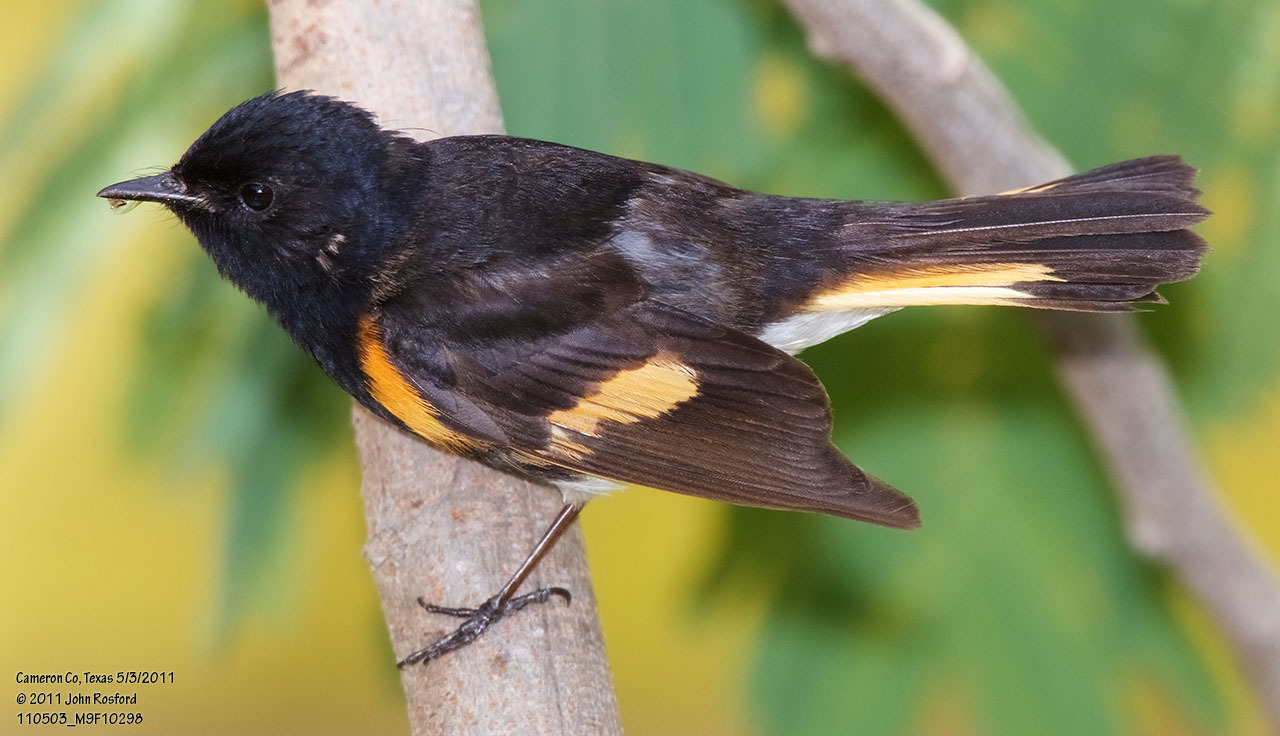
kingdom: Animalia
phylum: Chordata
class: Aves
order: Passeriformes
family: Parulidae
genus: Setophaga
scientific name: Setophaga ruticilla
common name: American redstart
